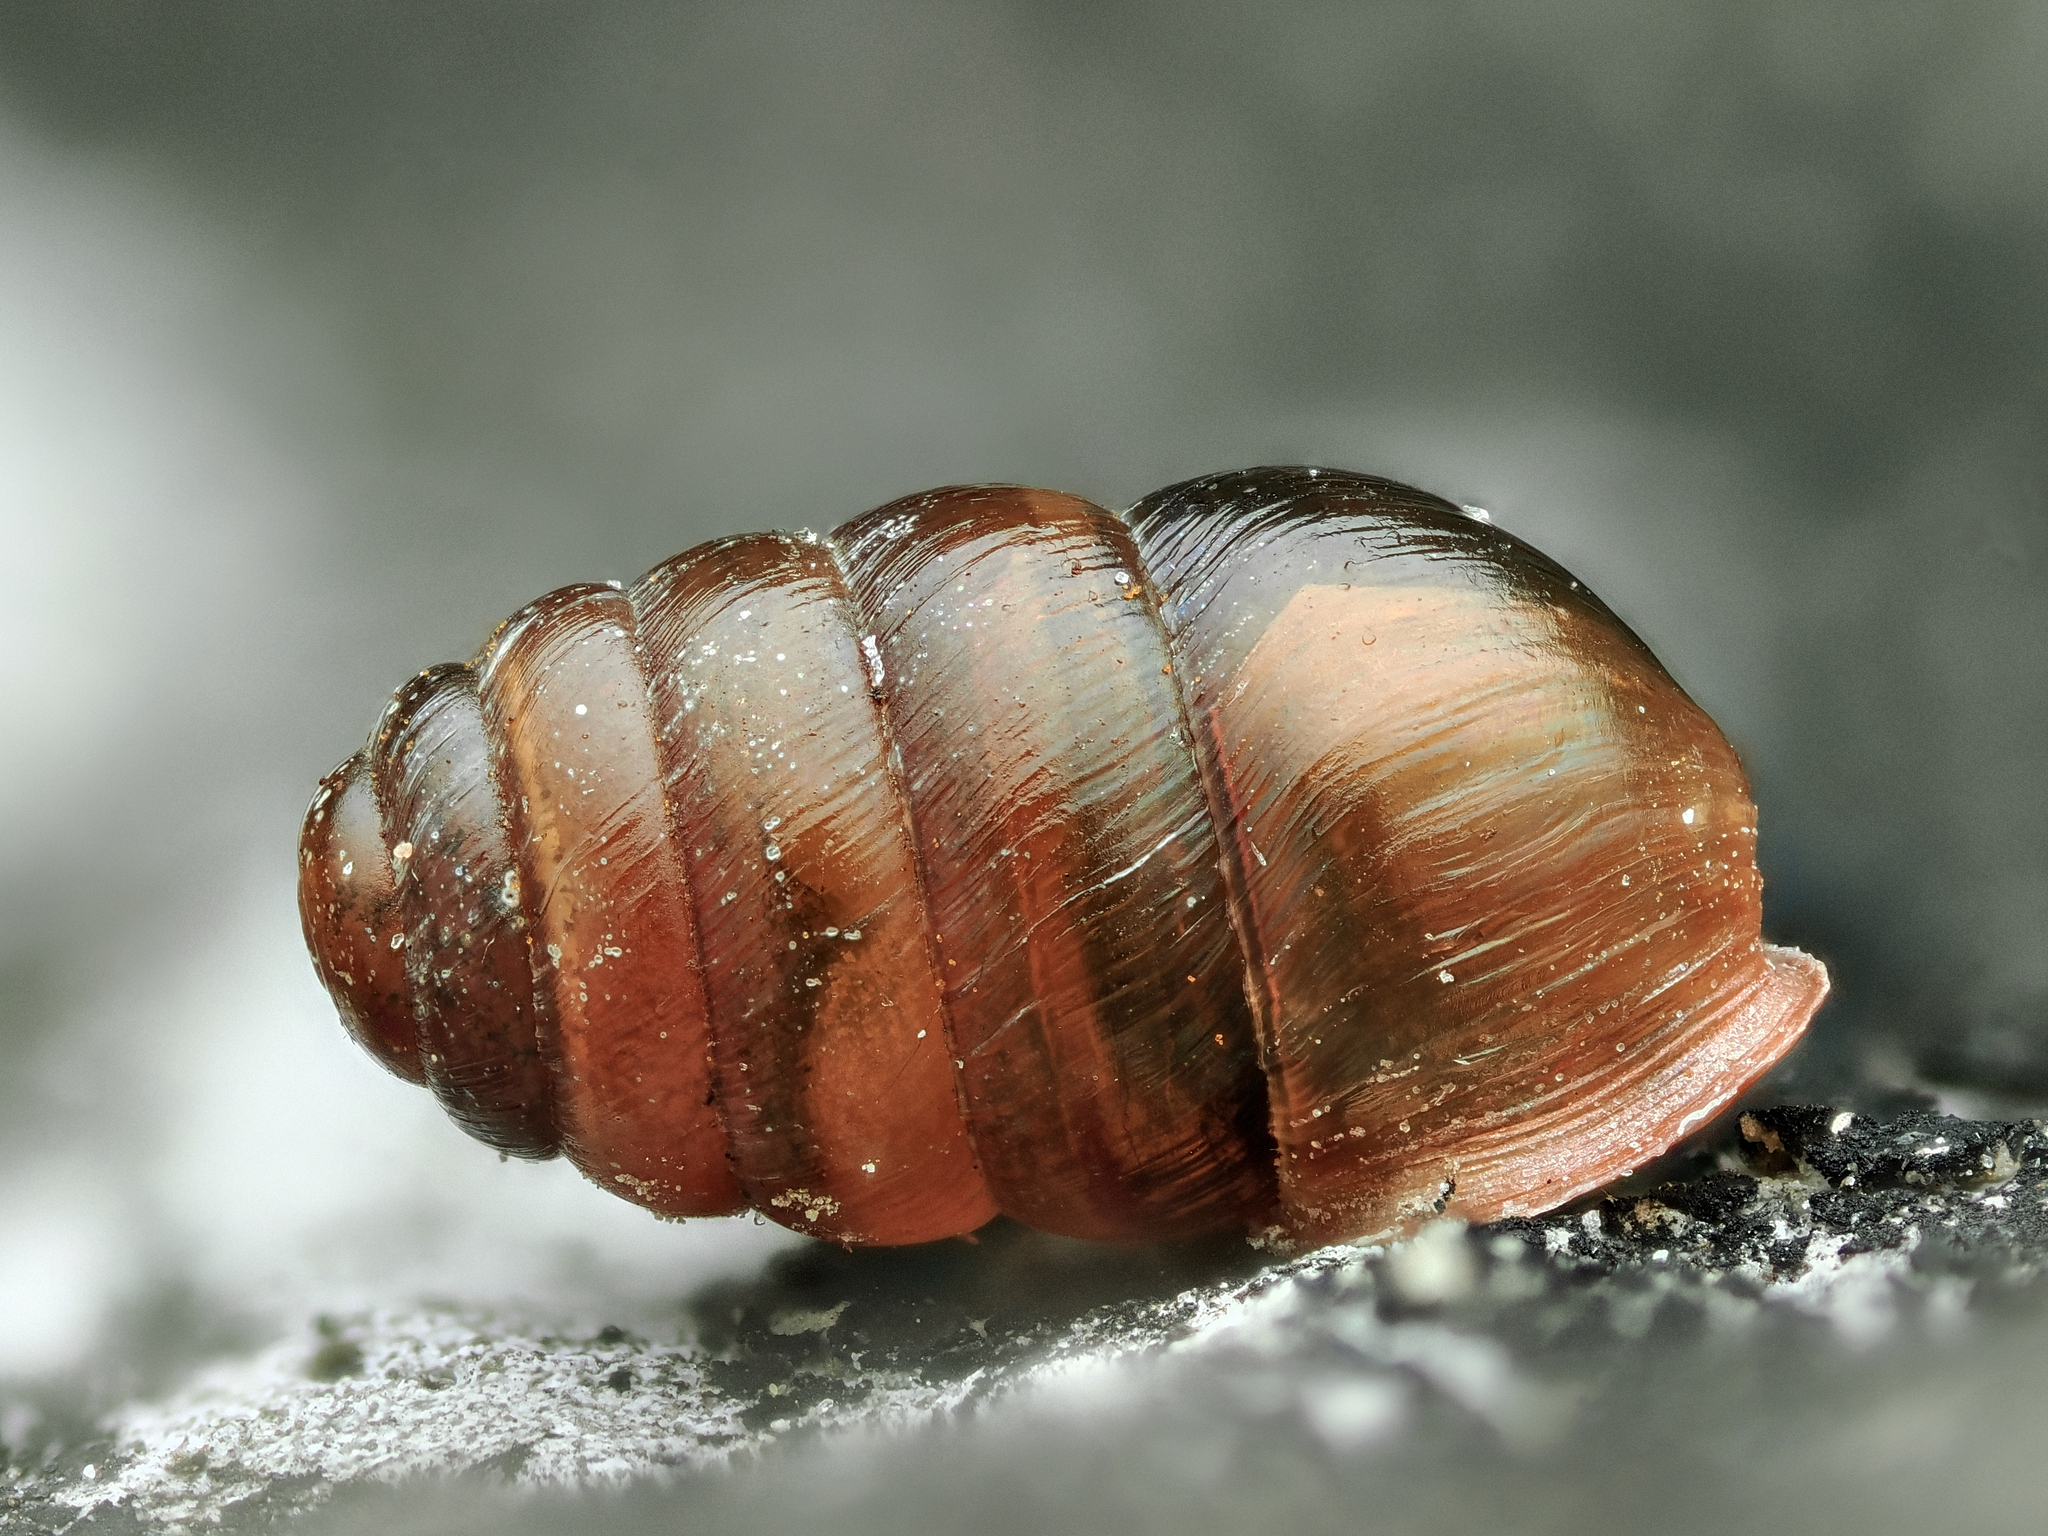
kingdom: Animalia
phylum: Mollusca
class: Gastropoda
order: Stylommatophora
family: Lauriidae
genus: Lauria
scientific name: Lauria cylindracea
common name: Common chrysalis snail
